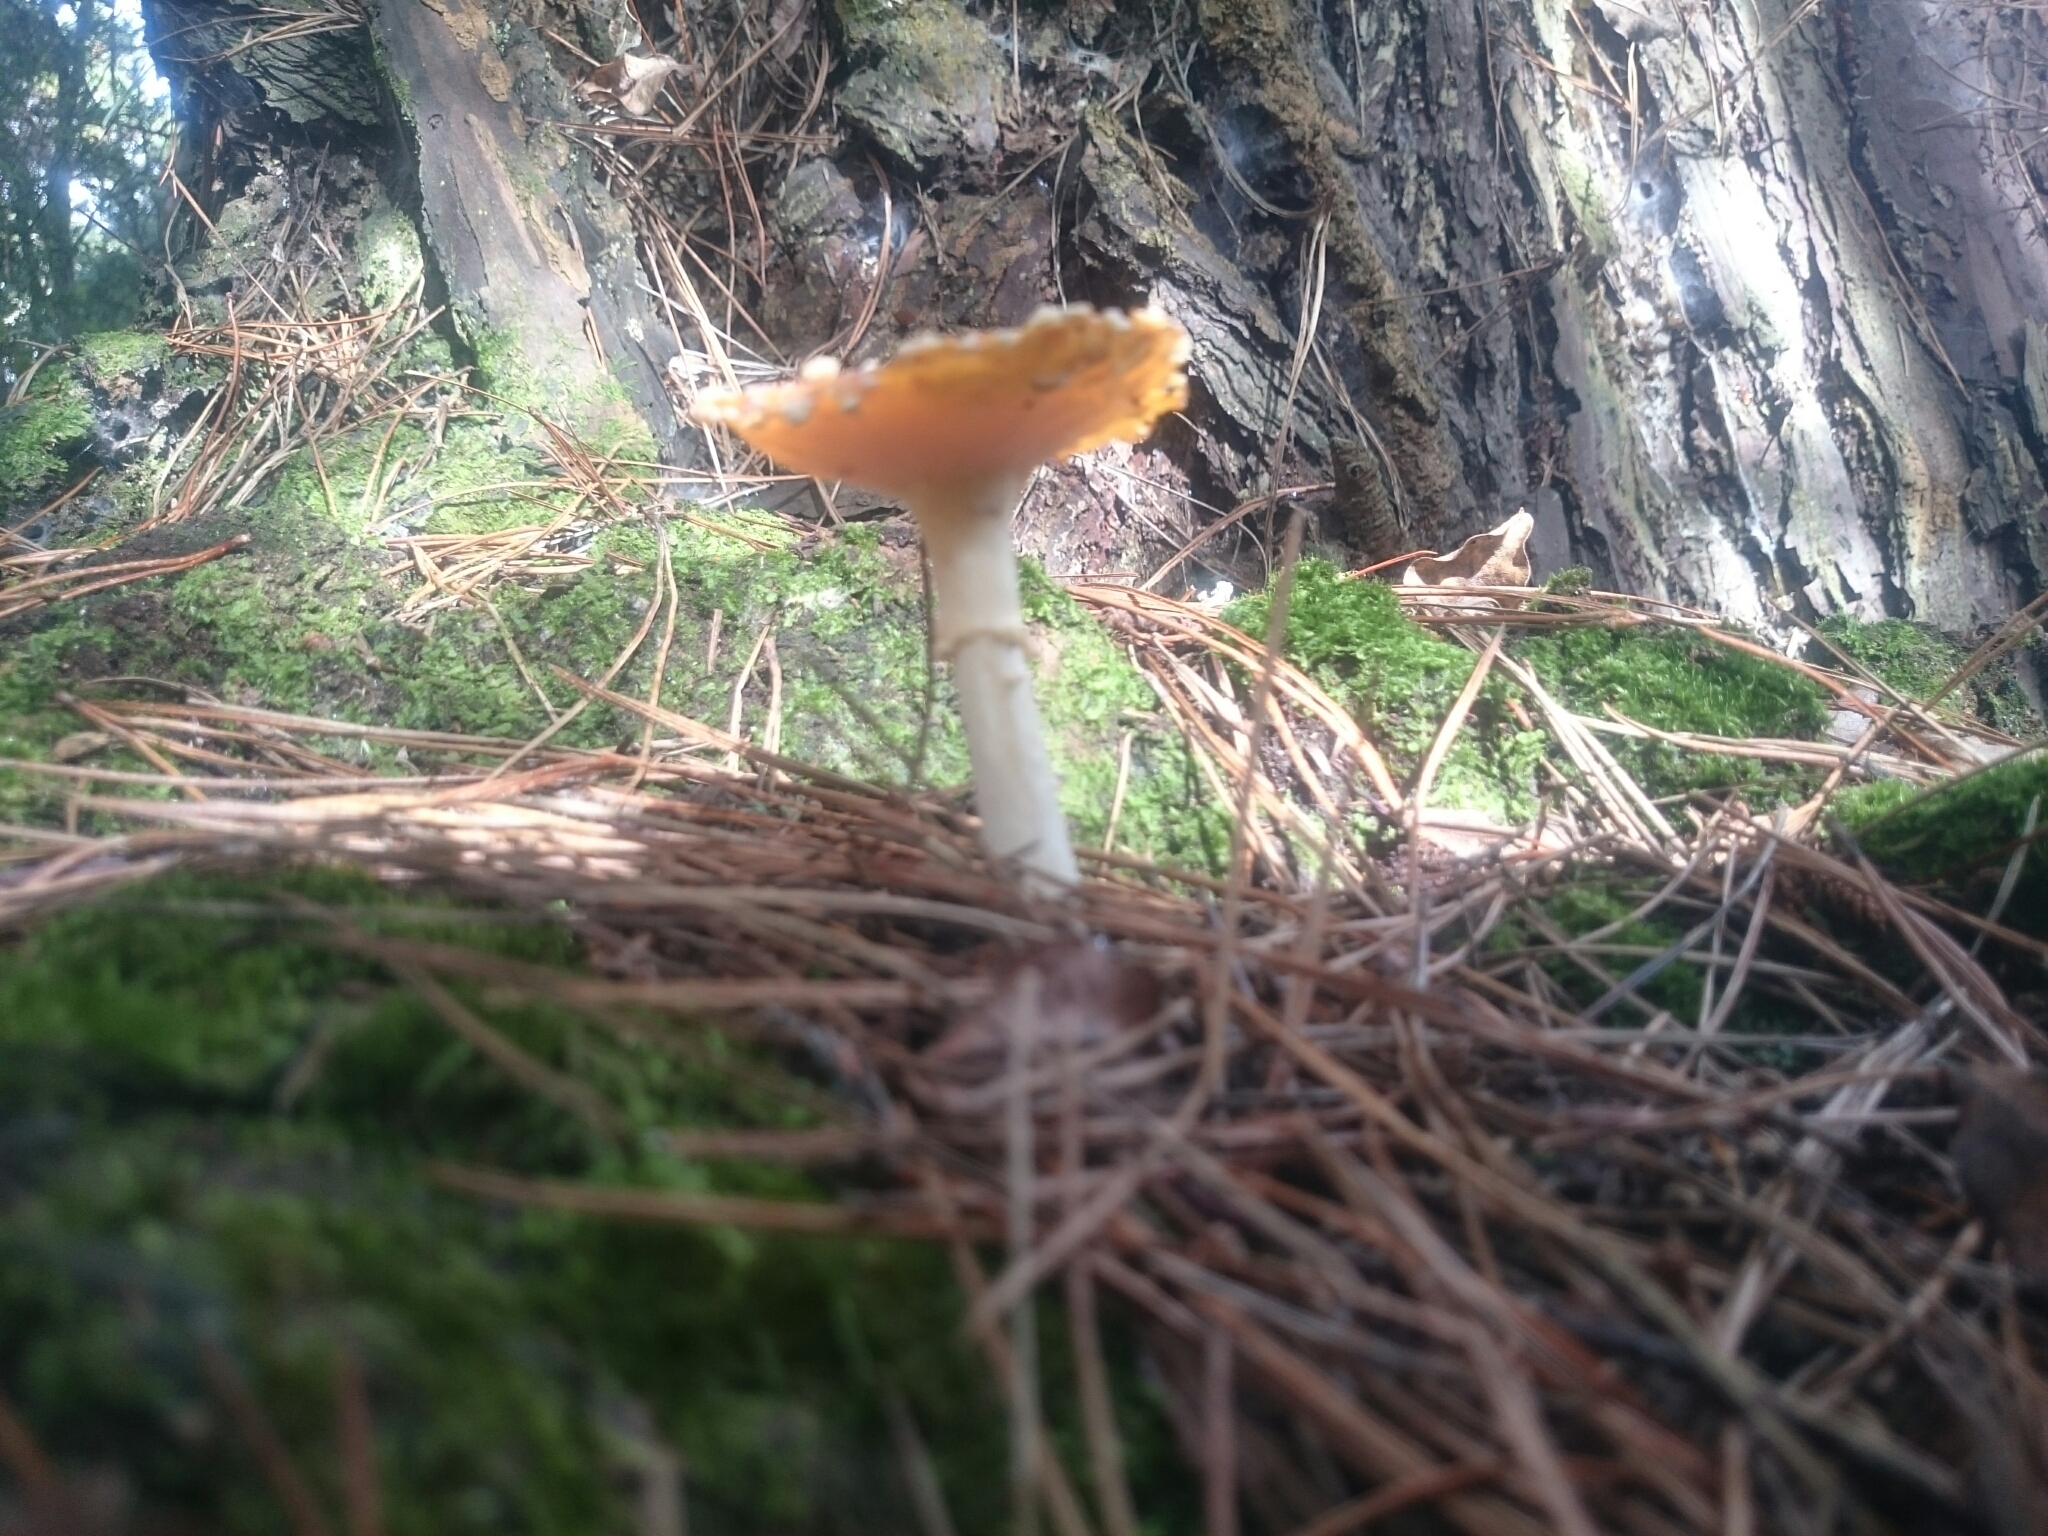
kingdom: Fungi
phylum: Basidiomycota
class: Agaricomycetes
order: Agaricales
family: Amanitaceae
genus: Amanita
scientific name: Amanita muscaria
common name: Fly agaric
